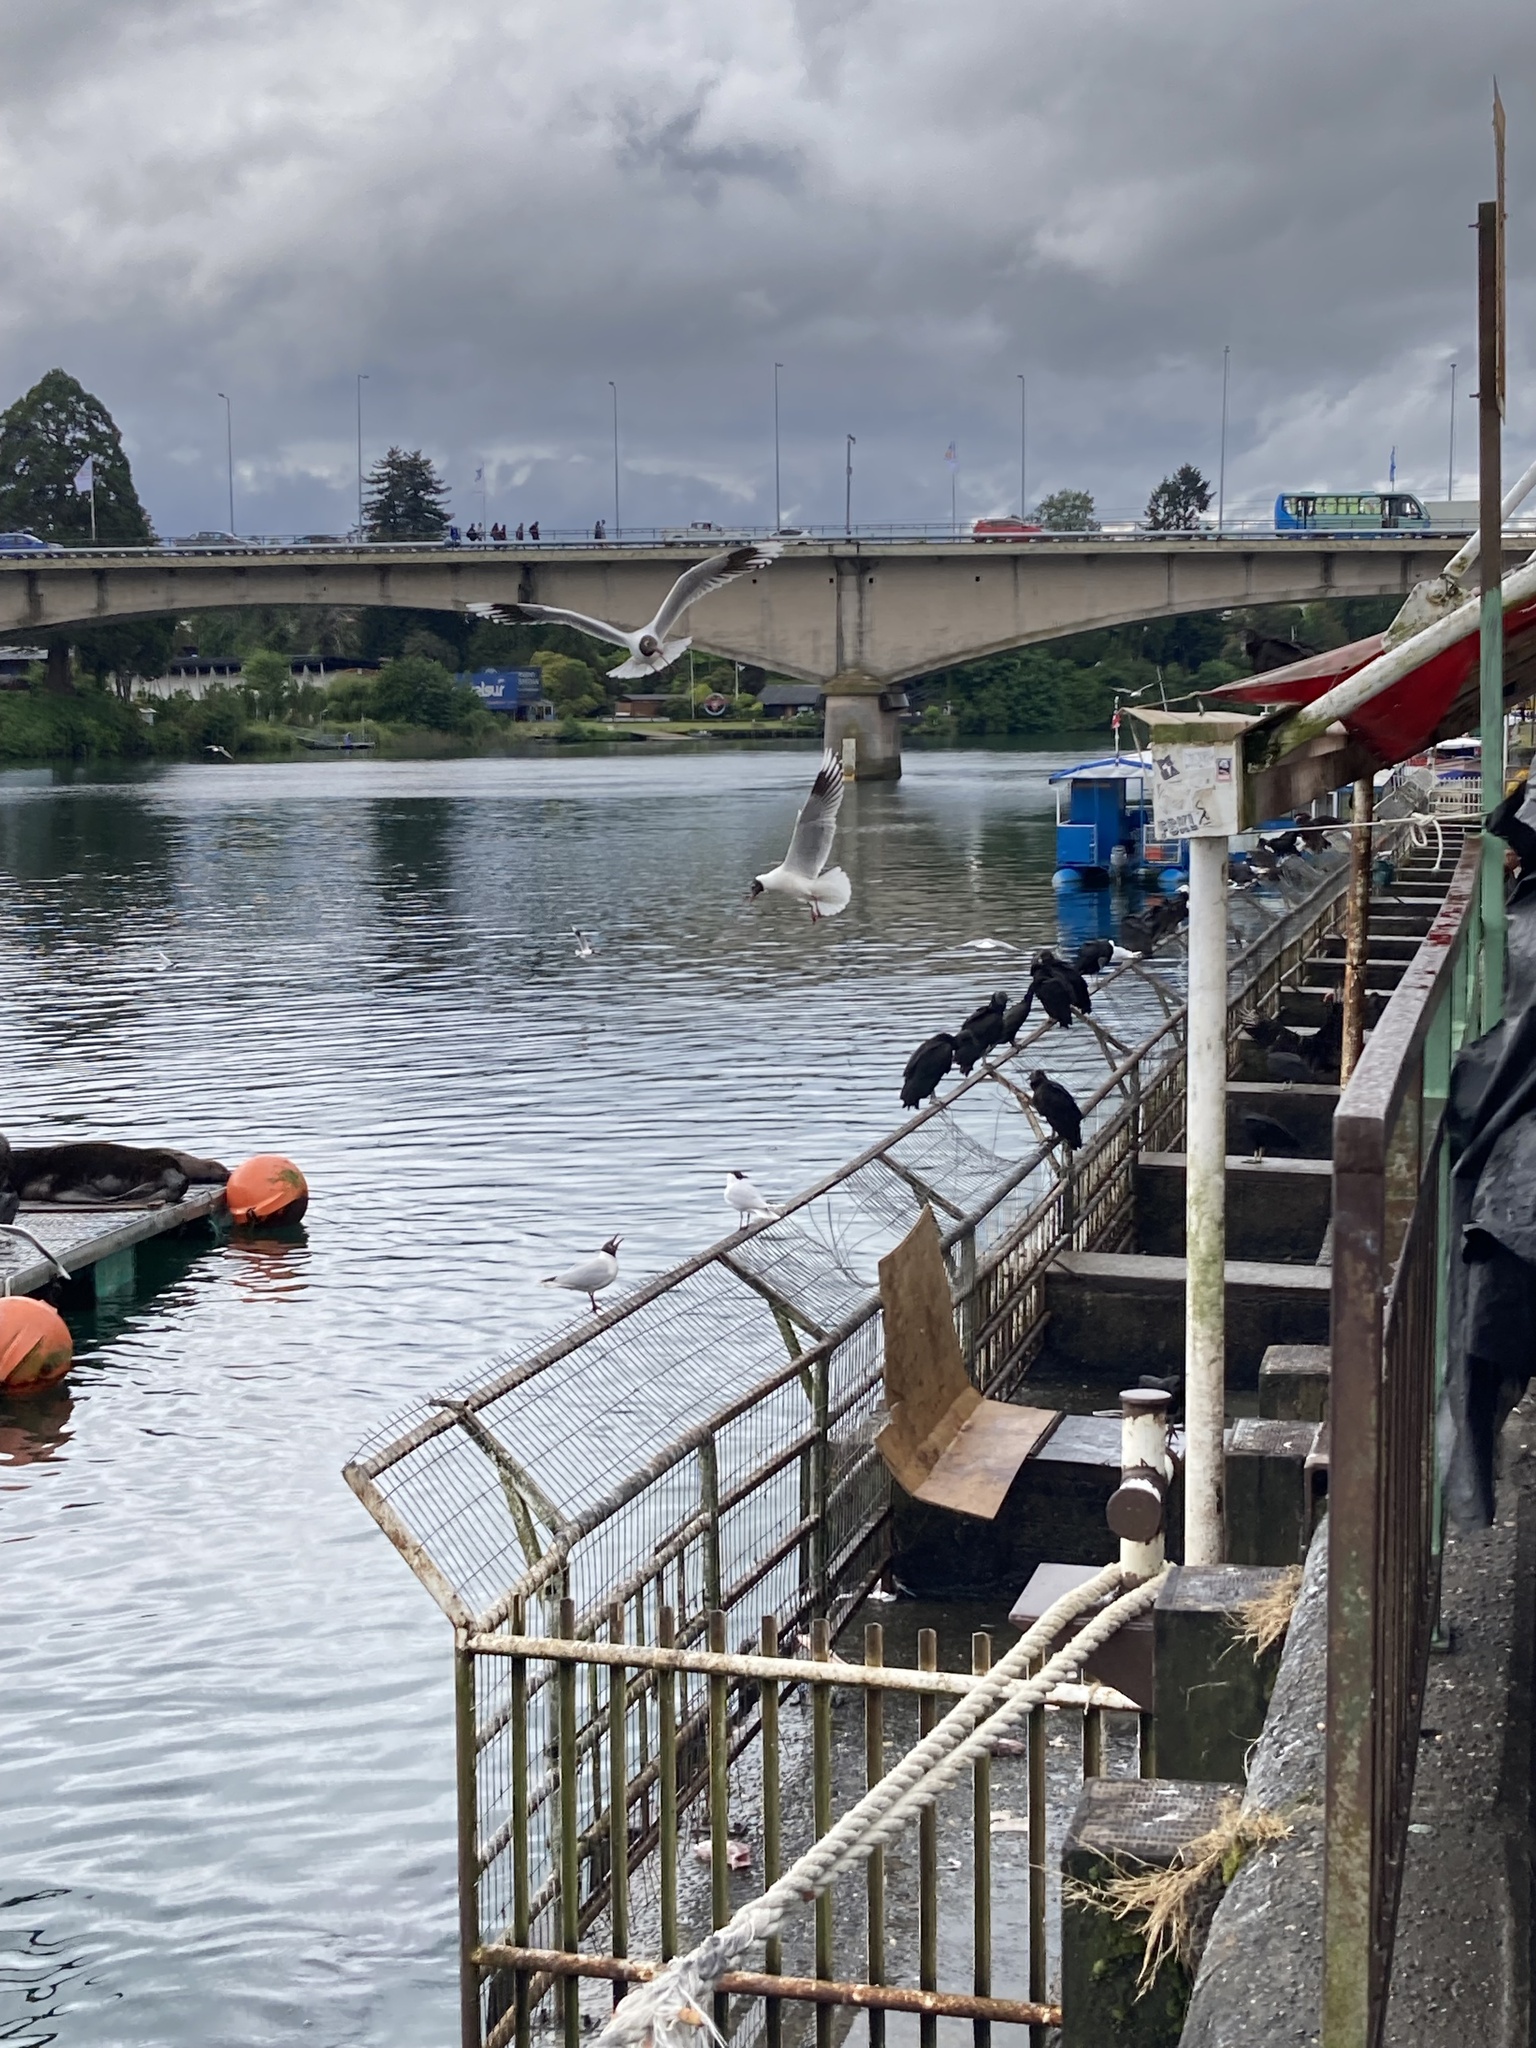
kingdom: Animalia
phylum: Chordata
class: Aves
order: Accipitriformes
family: Cathartidae
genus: Coragyps
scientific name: Coragyps atratus
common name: Black vulture
